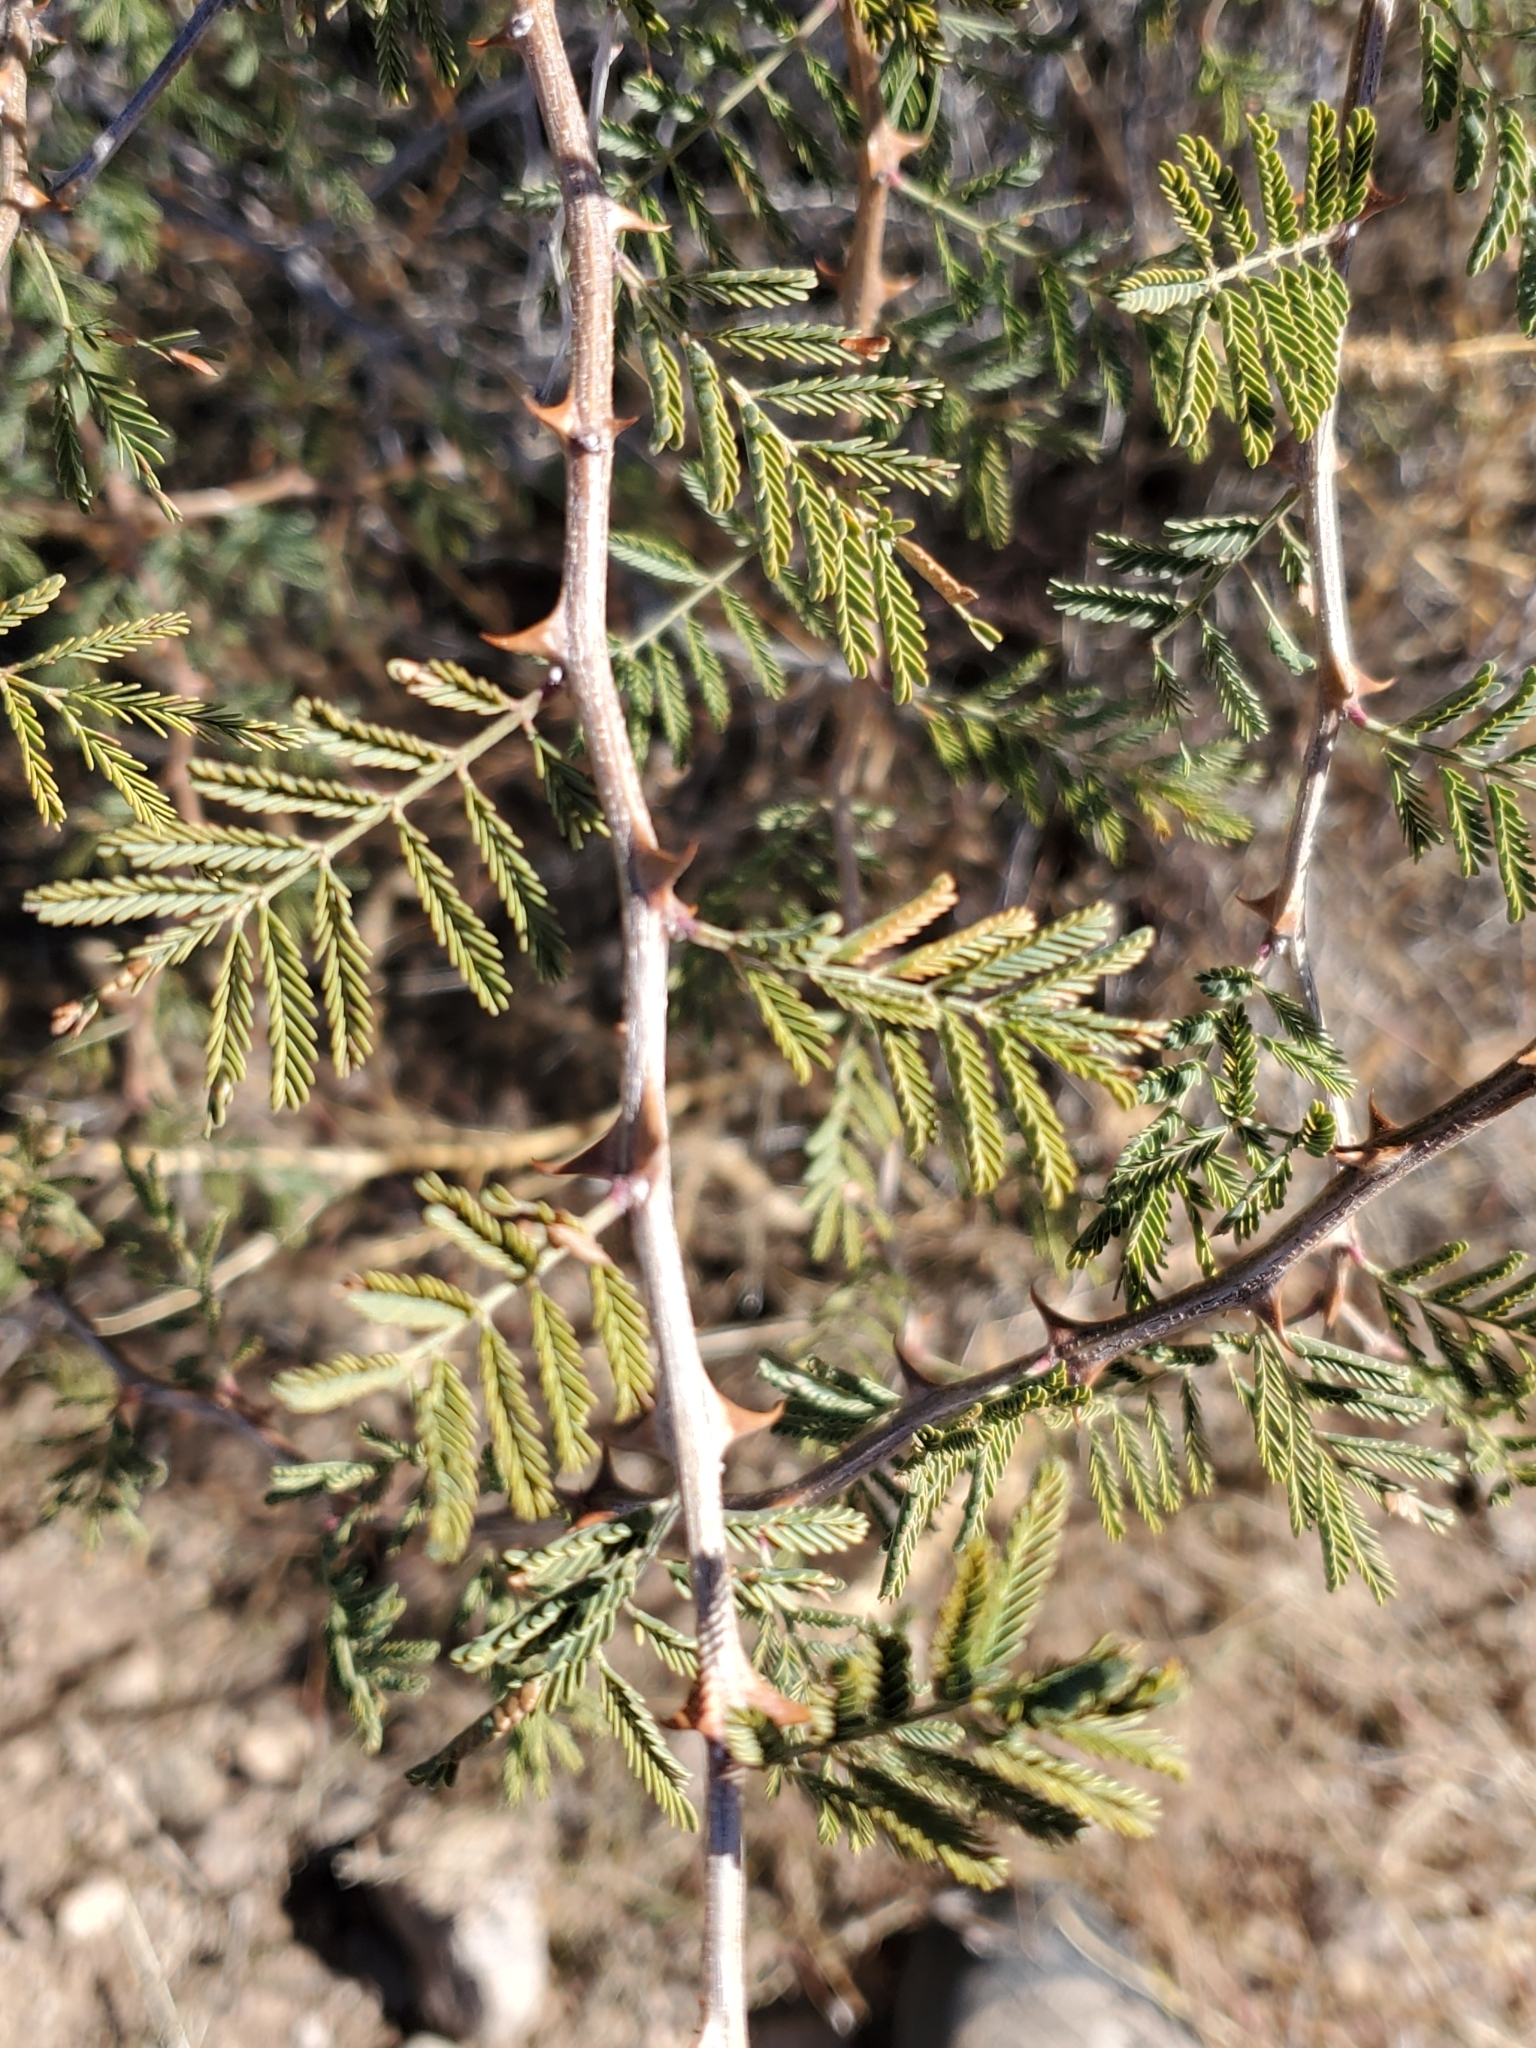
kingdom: Plantae
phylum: Tracheophyta
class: Magnoliopsida
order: Fabales
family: Fabaceae
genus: Mimosa
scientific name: Mimosa aculeaticarpa
